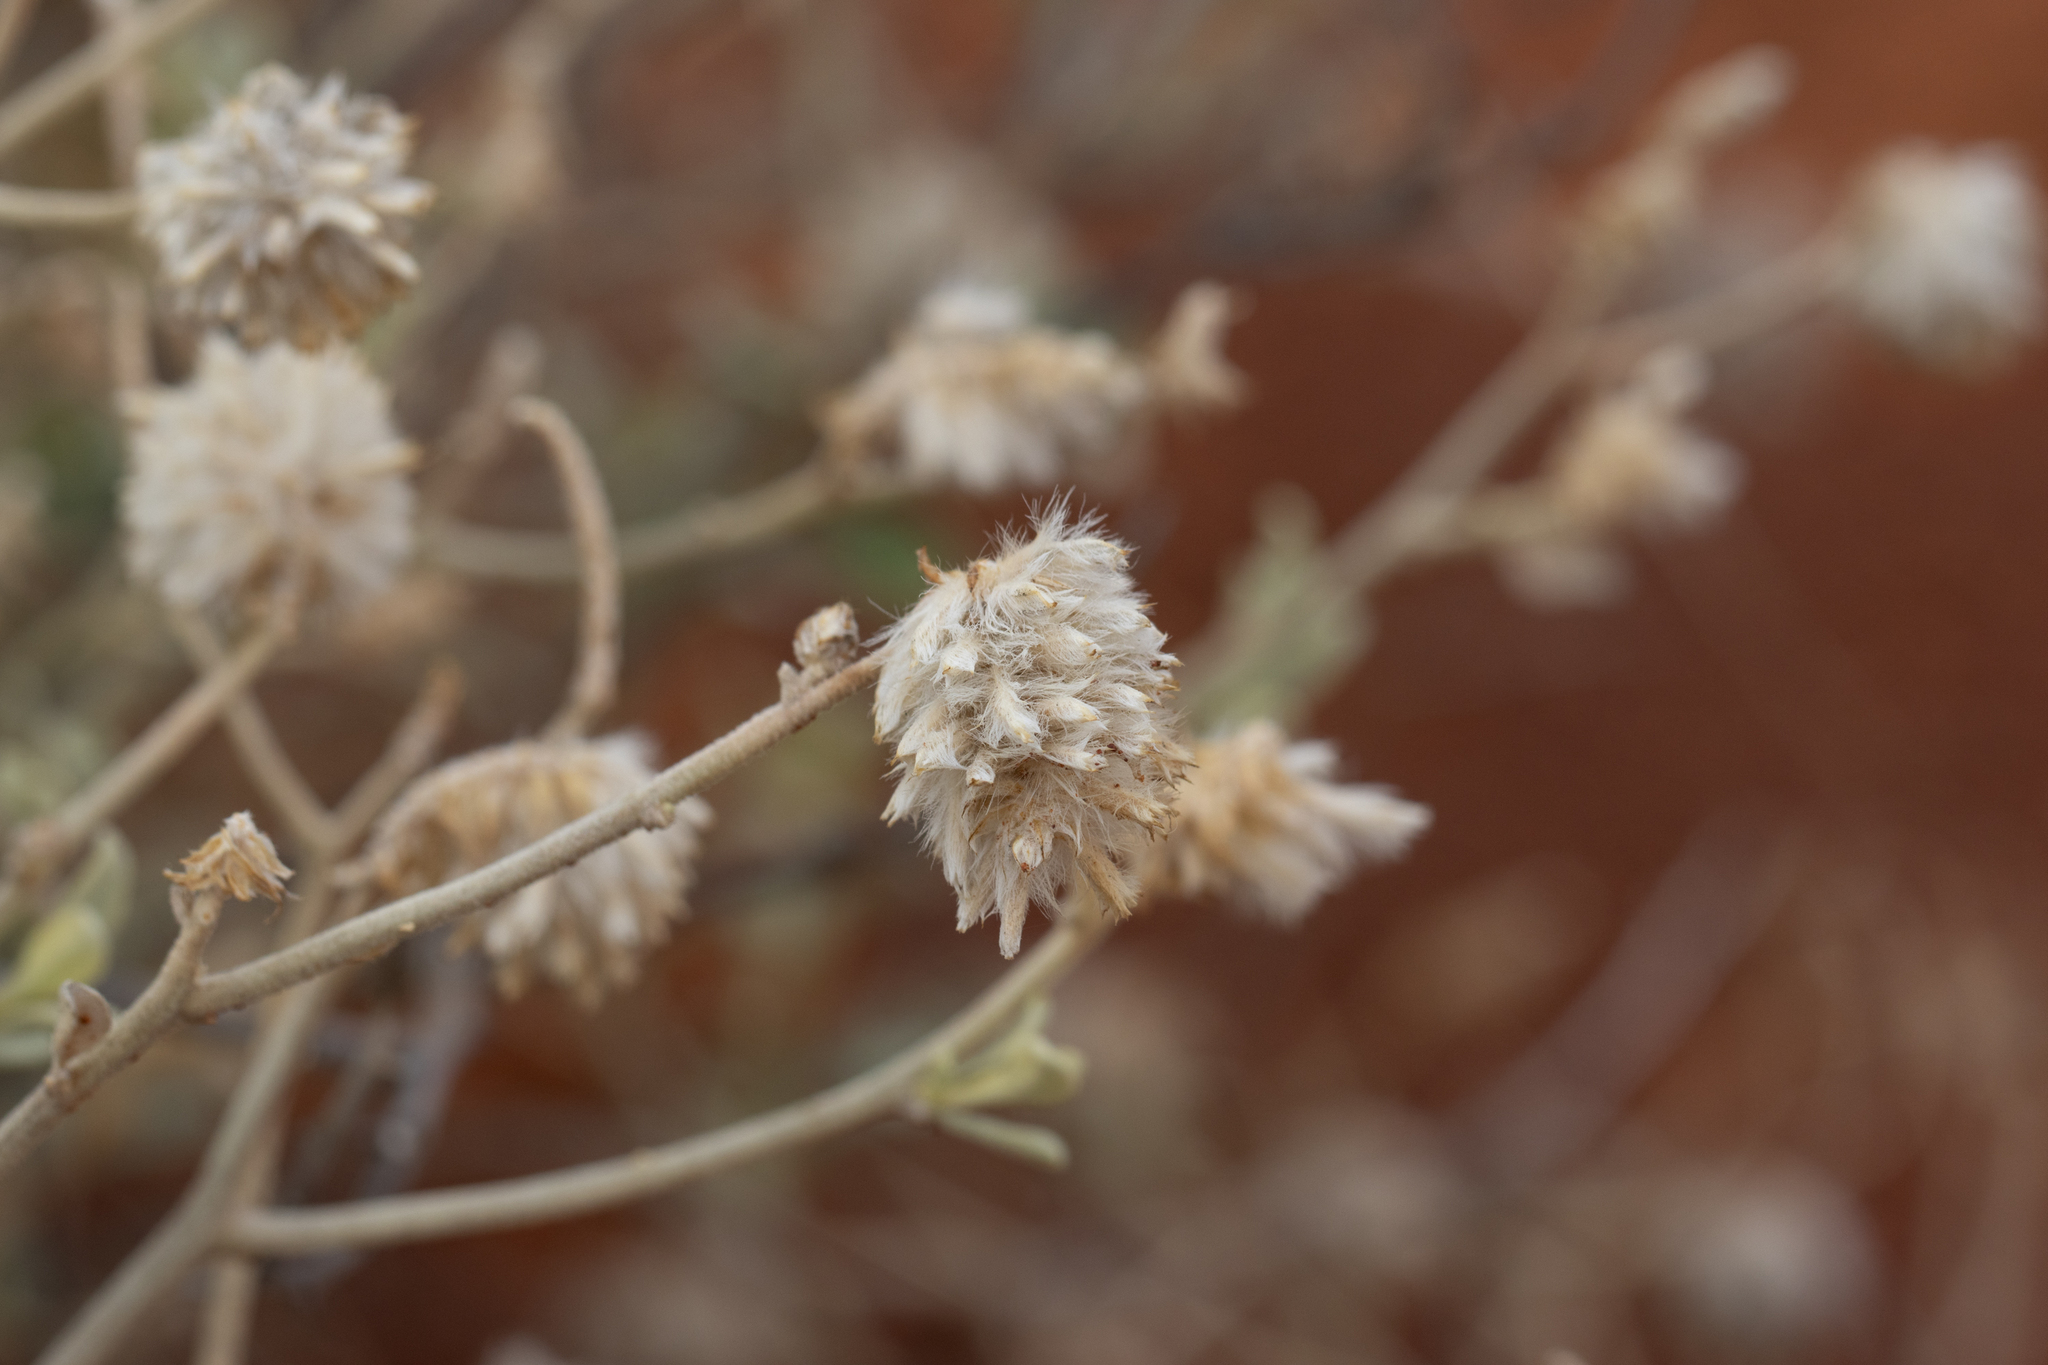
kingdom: Plantae
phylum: Tracheophyta
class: Magnoliopsida
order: Caryophyllales
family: Amaranthaceae
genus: Ptilotus
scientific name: Ptilotus obovatus
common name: Cottonbush
